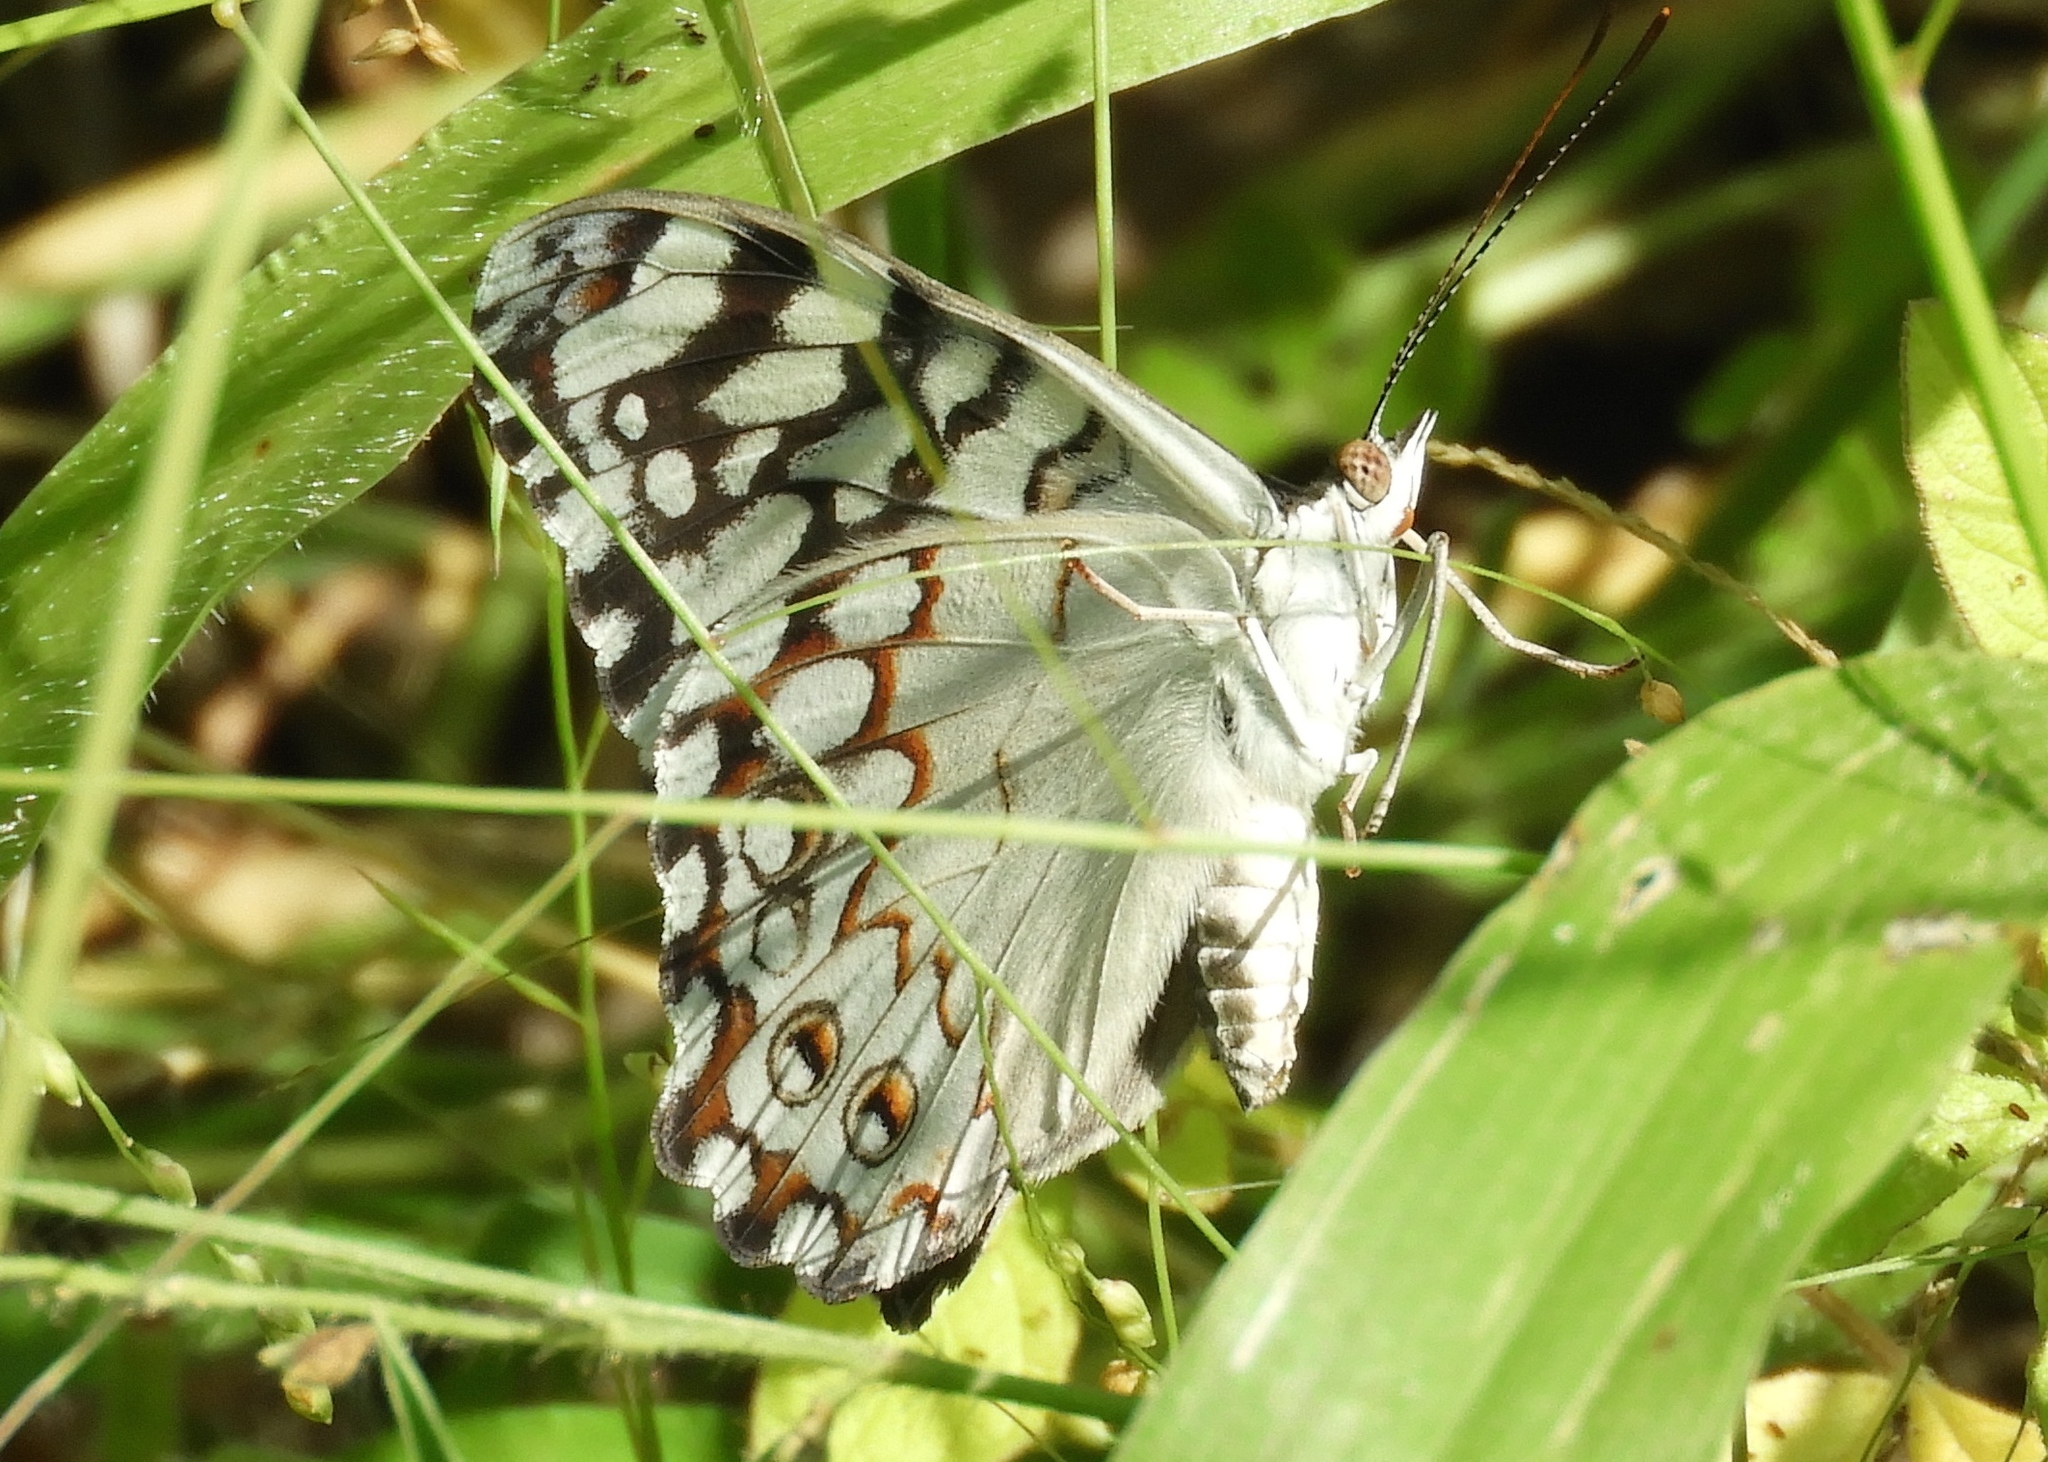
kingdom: Animalia
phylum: Arthropoda
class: Insecta
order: Lepidoptera
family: Nymphalidae
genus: Hamadryas
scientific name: Hamadryas februa
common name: Gray cracker
